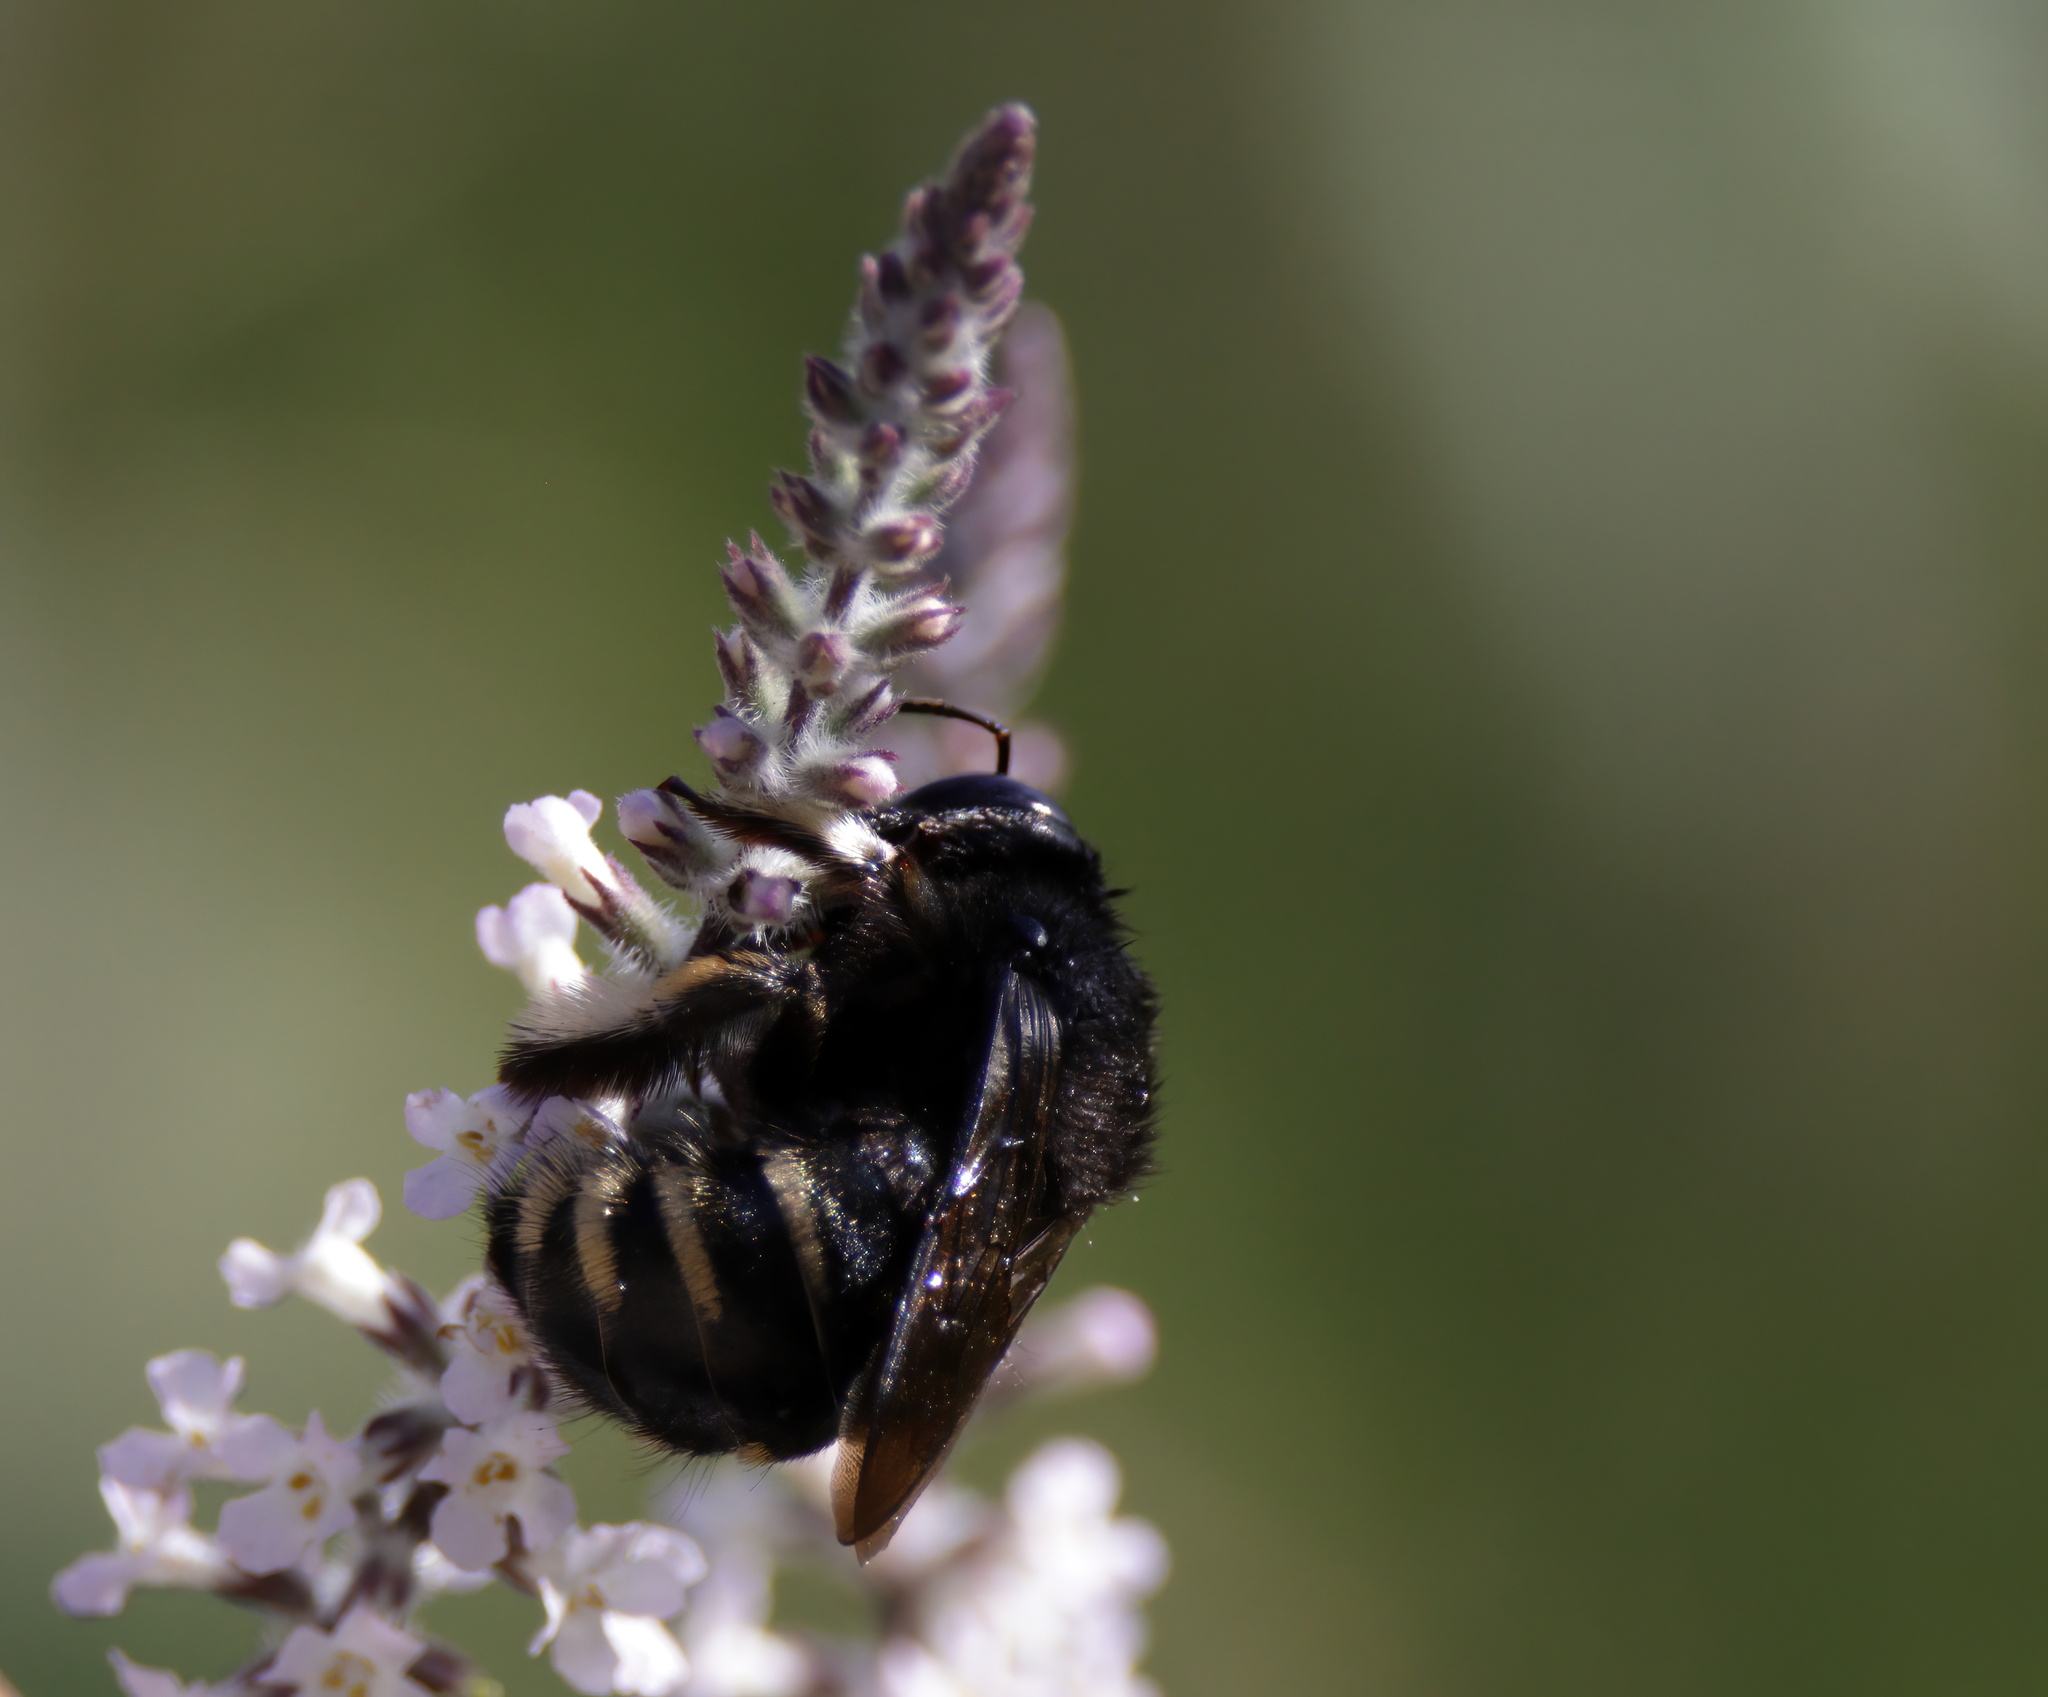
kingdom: Animalia
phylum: Arthropoda
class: Insecta
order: Hymenoptera
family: Apidae
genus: Xylocopa
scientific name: Xylocopa tabaniformis
